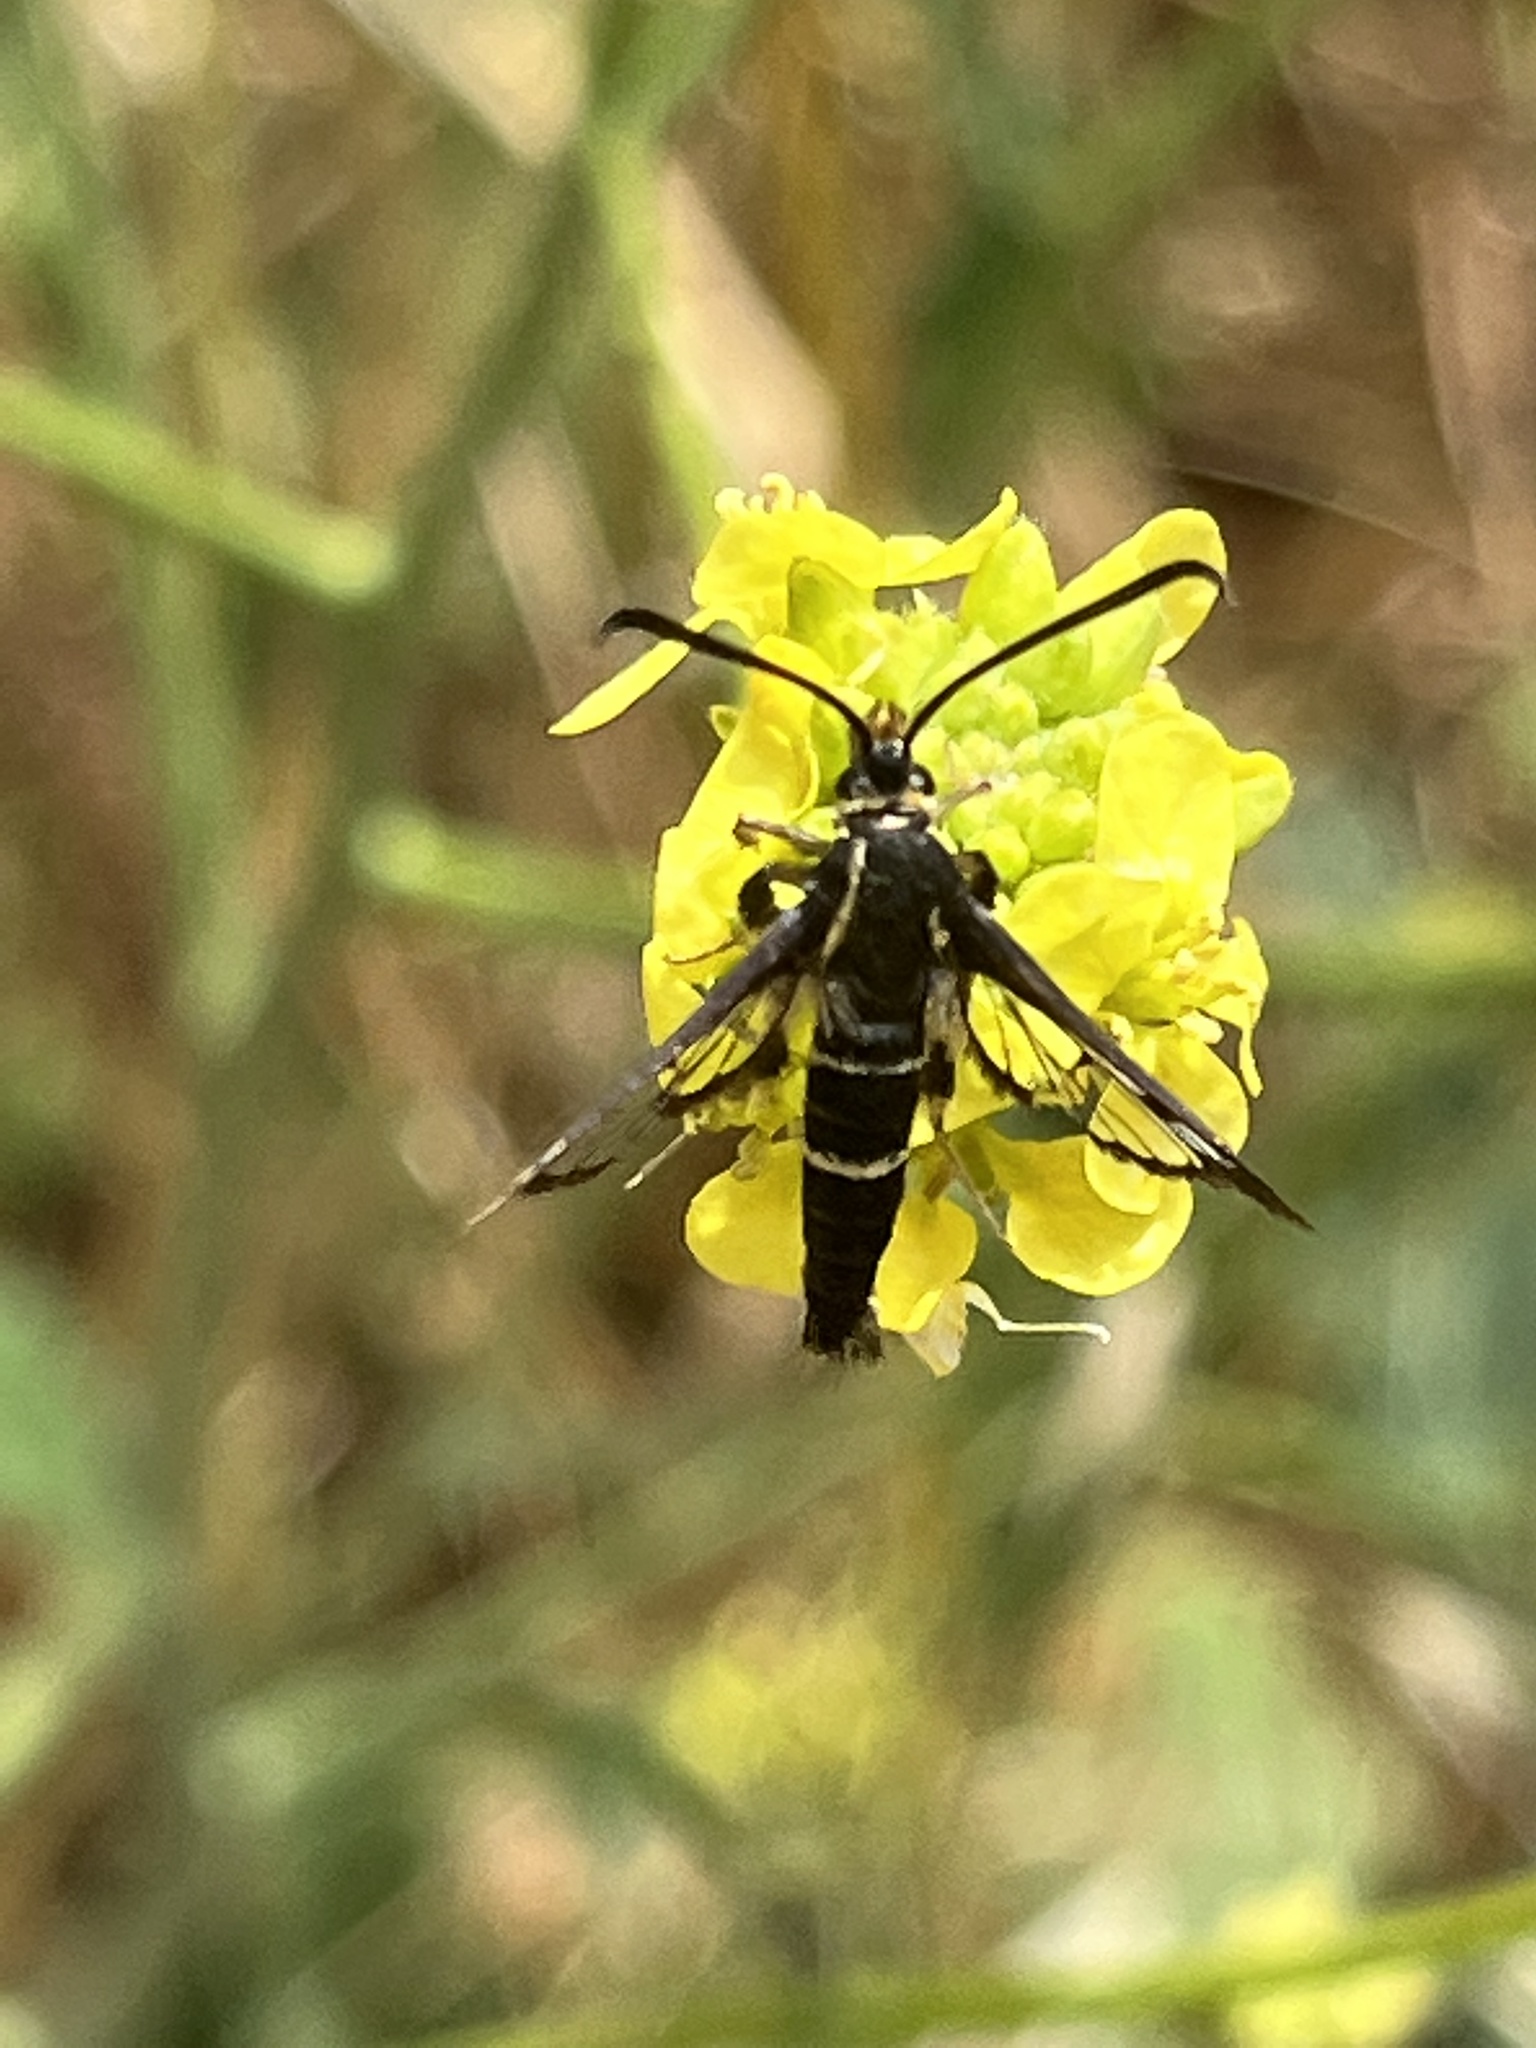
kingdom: Animalia
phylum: Arthropoda
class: Insecta
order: Lepidoptera
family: Sesiidae
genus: Synanthedon
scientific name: Synanthedon bibionipennis
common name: Strawberry crown moth
